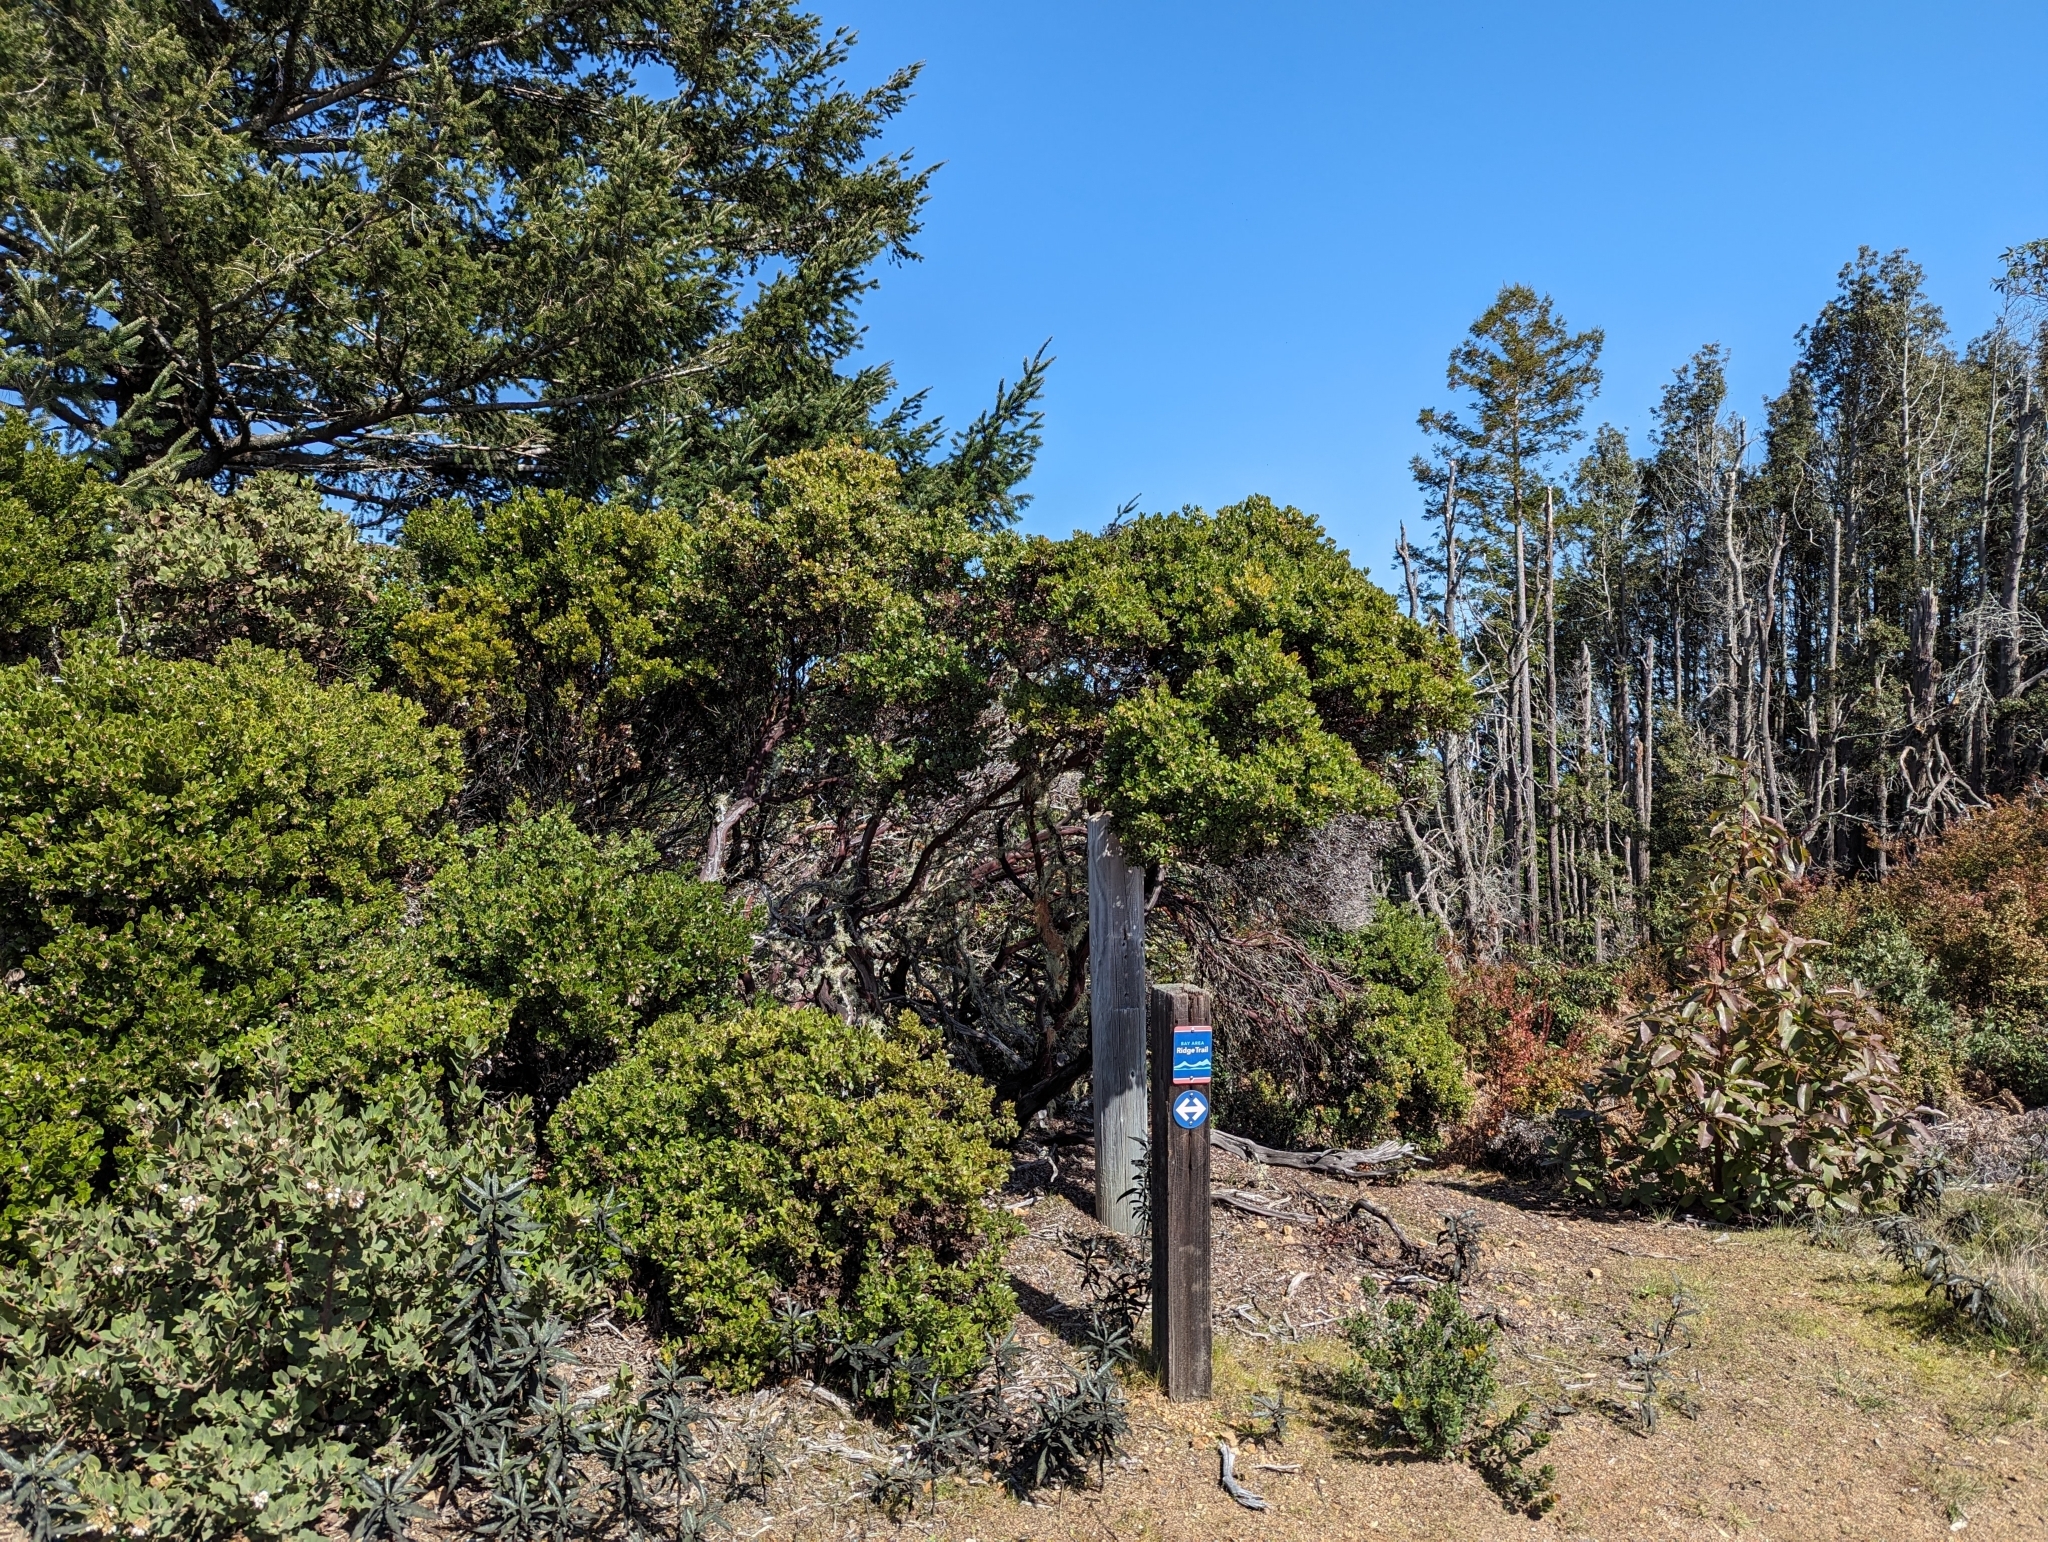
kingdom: Plantae
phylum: Tracheophyta
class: Magnoliopsida
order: Ericales
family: Ericaceae
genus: Arctostaphylos
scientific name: Arctostaphylos nummularia
